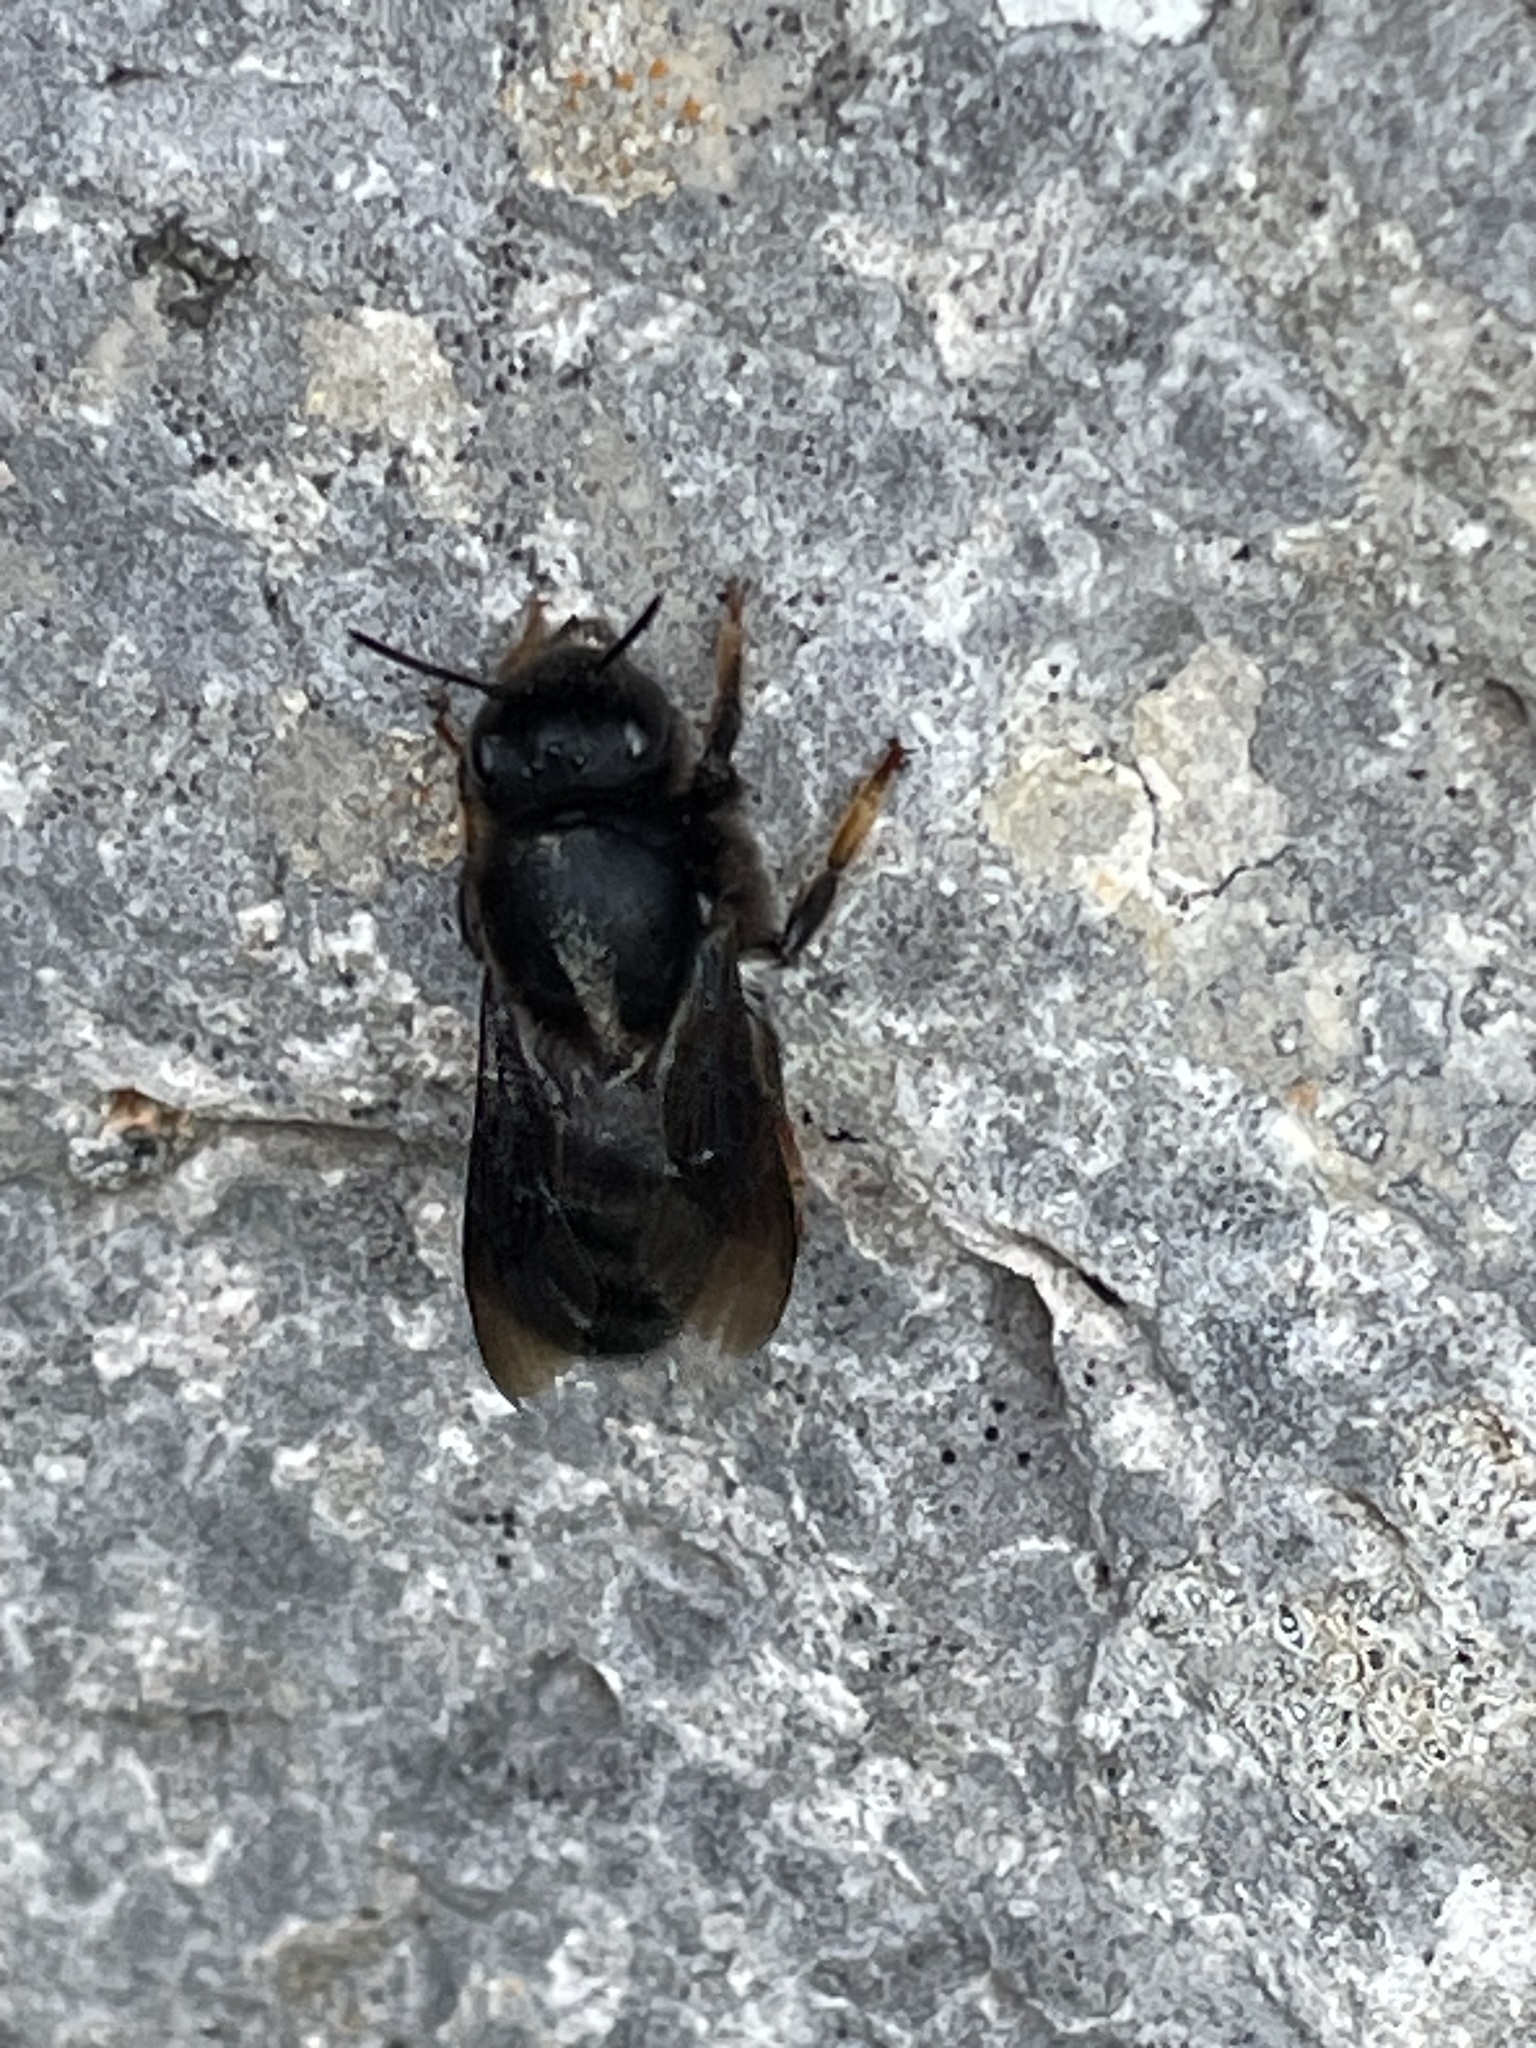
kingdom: Animalia
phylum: Arthropoda
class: Insecta
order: Hymenoptera
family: Megachilidae
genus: Megachile
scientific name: Megachile parietina
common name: Black mud bee
